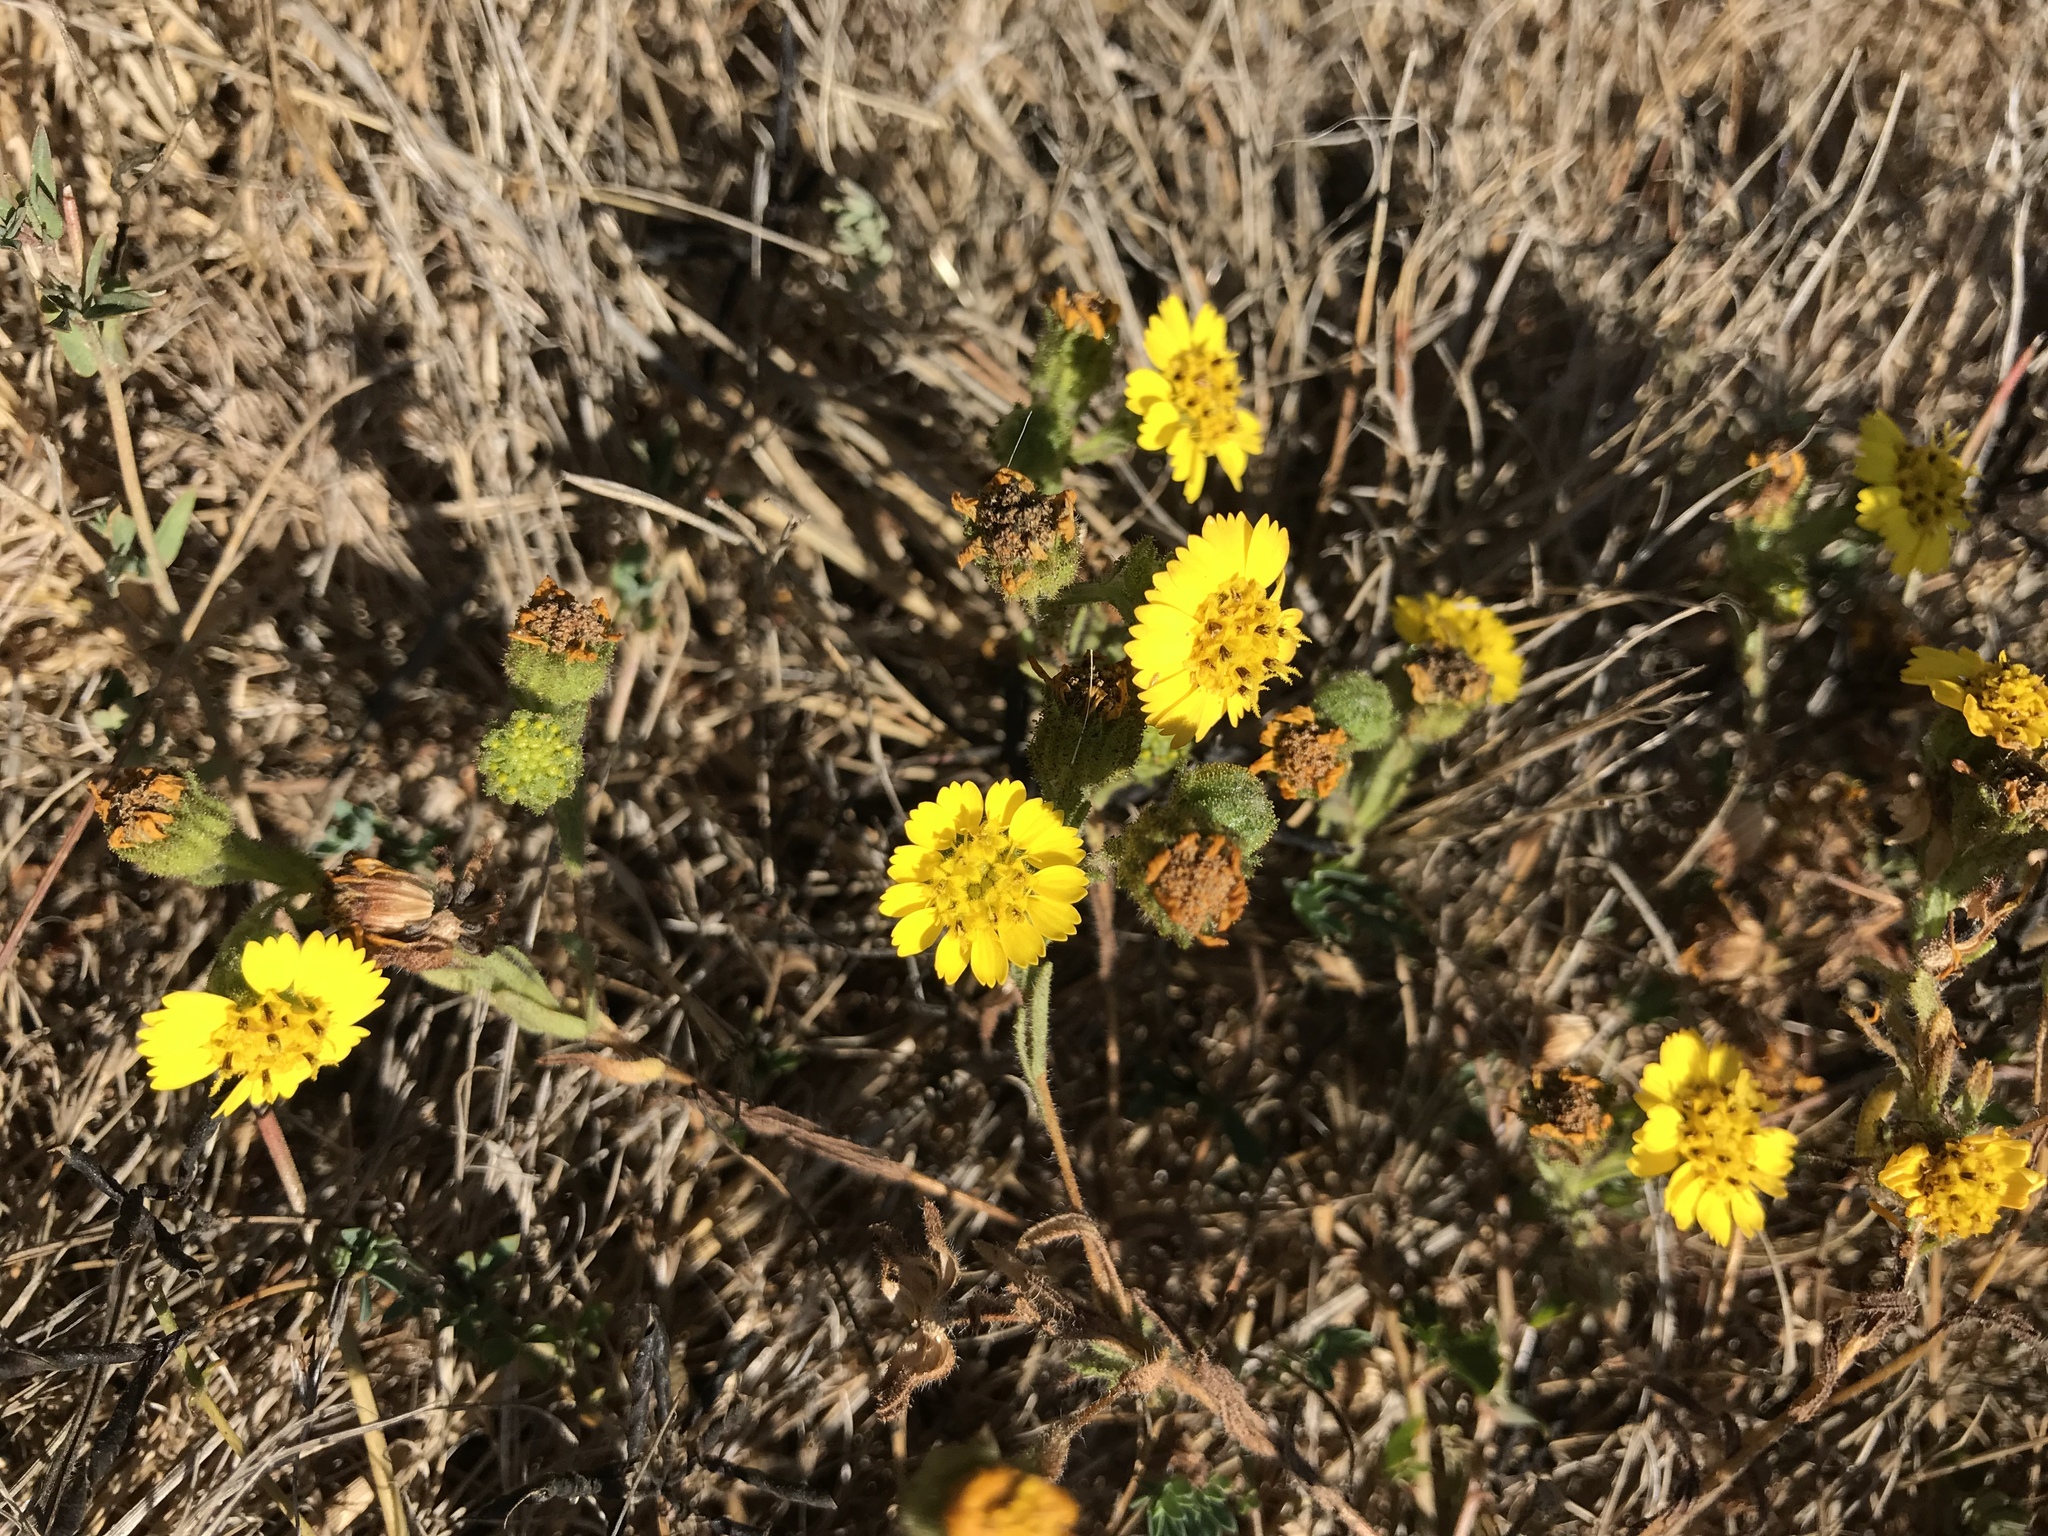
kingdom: Plantae
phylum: Tracheophyta
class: Magnoliopsida
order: Asterales
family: Asteraceae
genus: Deinandra
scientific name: Deinandra corymbosa
